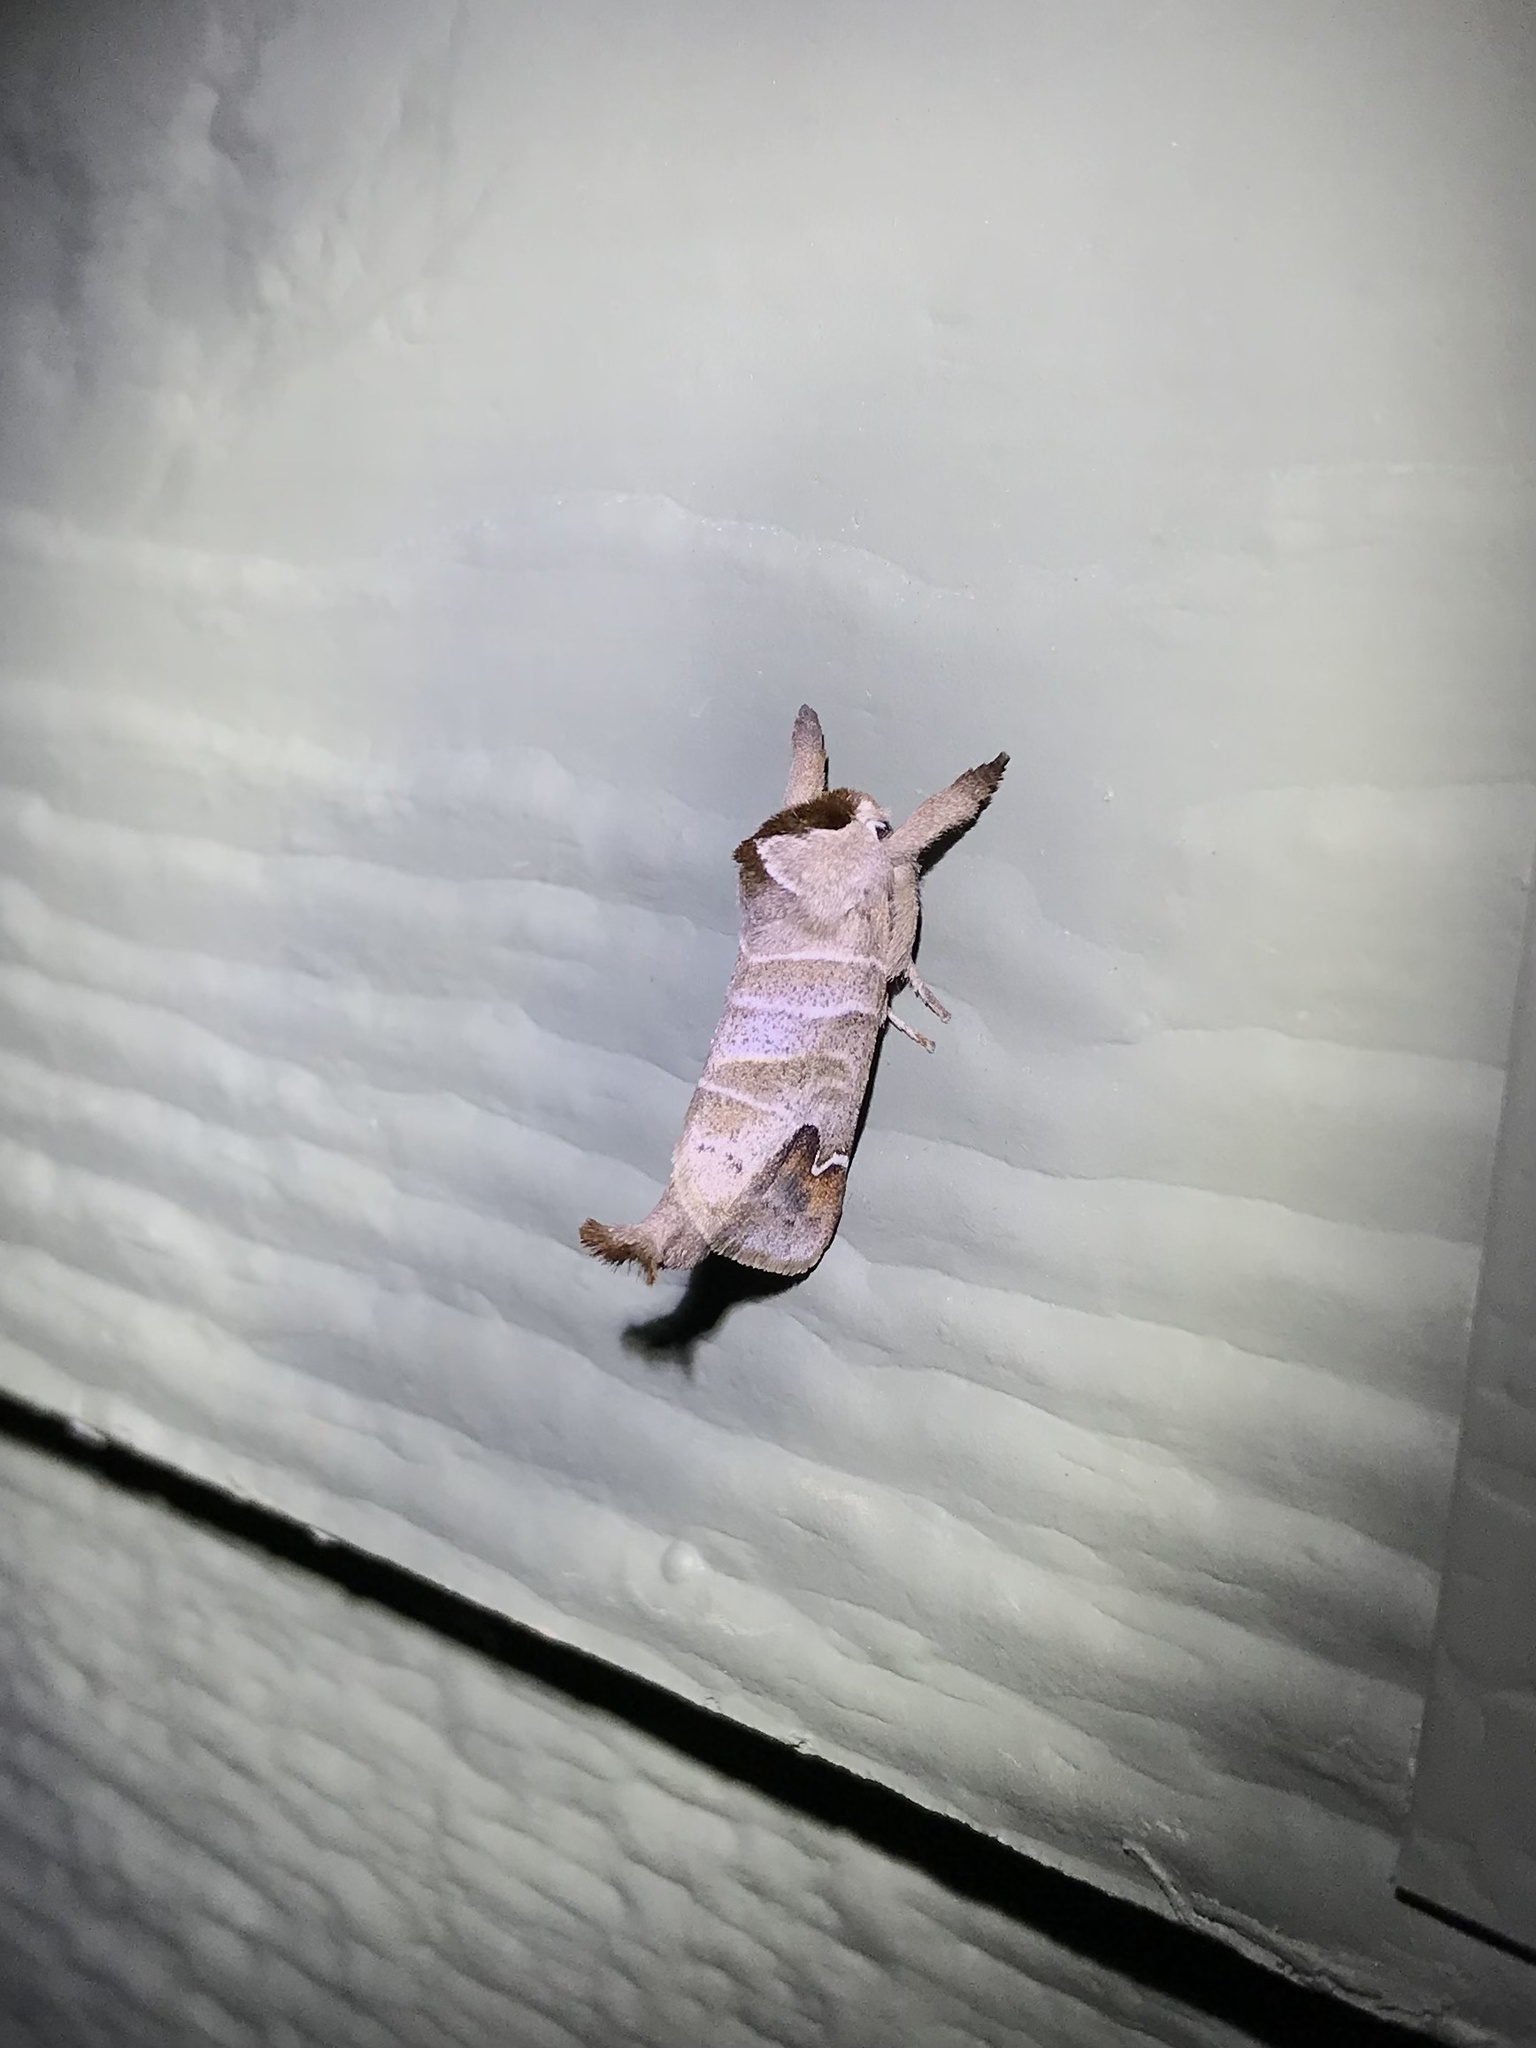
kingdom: Animalia
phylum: Arthropoda
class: Insecta
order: Lepidoptera
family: Notodontidae
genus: Clostera
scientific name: Clostera albosigma
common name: Sigmoid prominent
